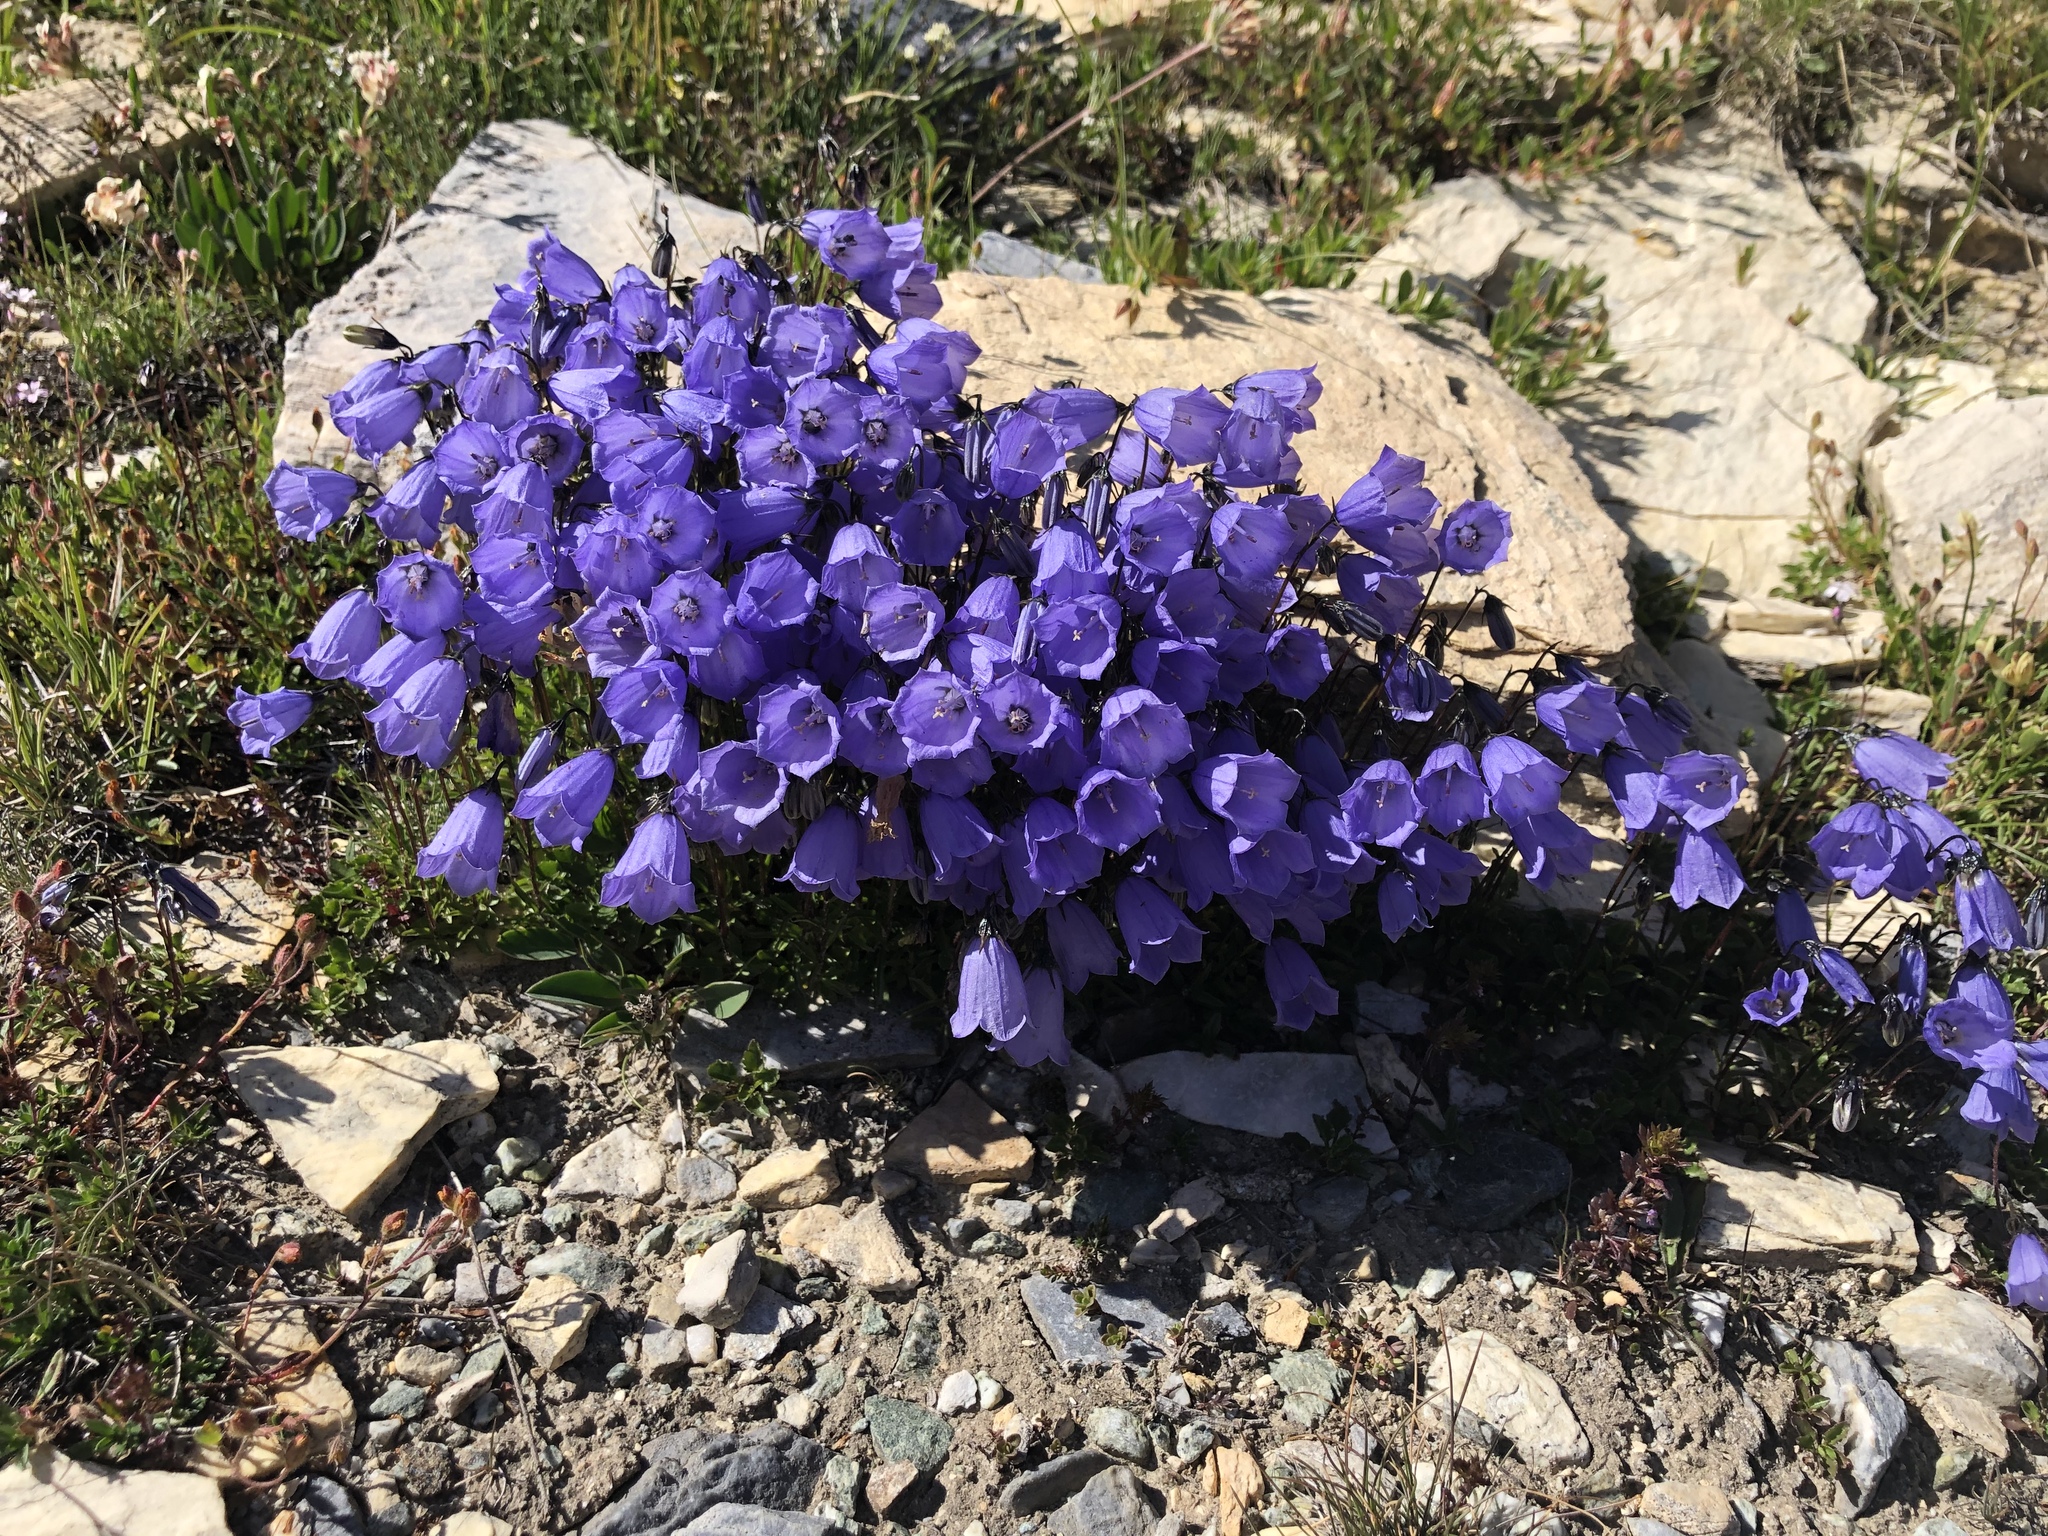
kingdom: Plantae
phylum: Tracheophyta
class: Magnoliopsida
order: Asterales
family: Campanulaceae
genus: Campanula
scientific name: Campanula cochleariifolia
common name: Fairies'-thimbles
